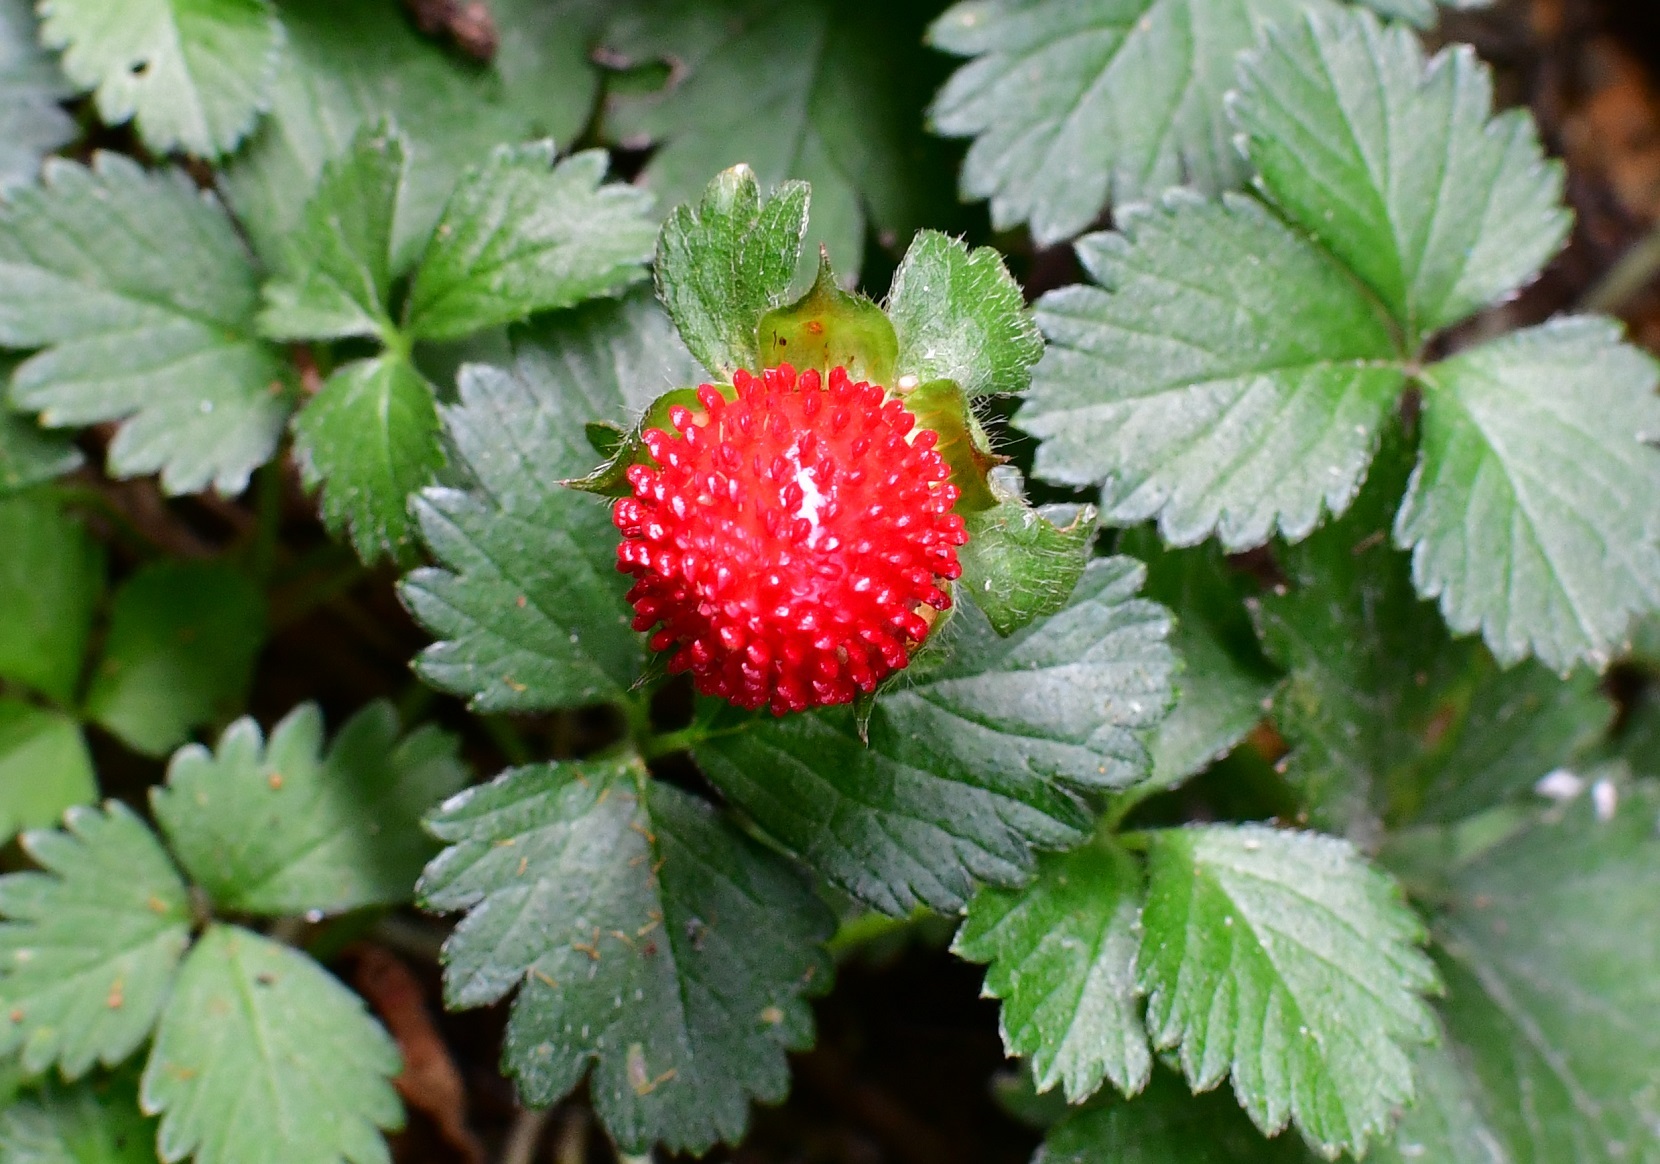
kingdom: Plantae
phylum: Tracheophyta
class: Magnoliopsida
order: Rosales
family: Rosaceae
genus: Potentilla
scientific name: Potentilla indica
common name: Yellow-flowered strawberry
